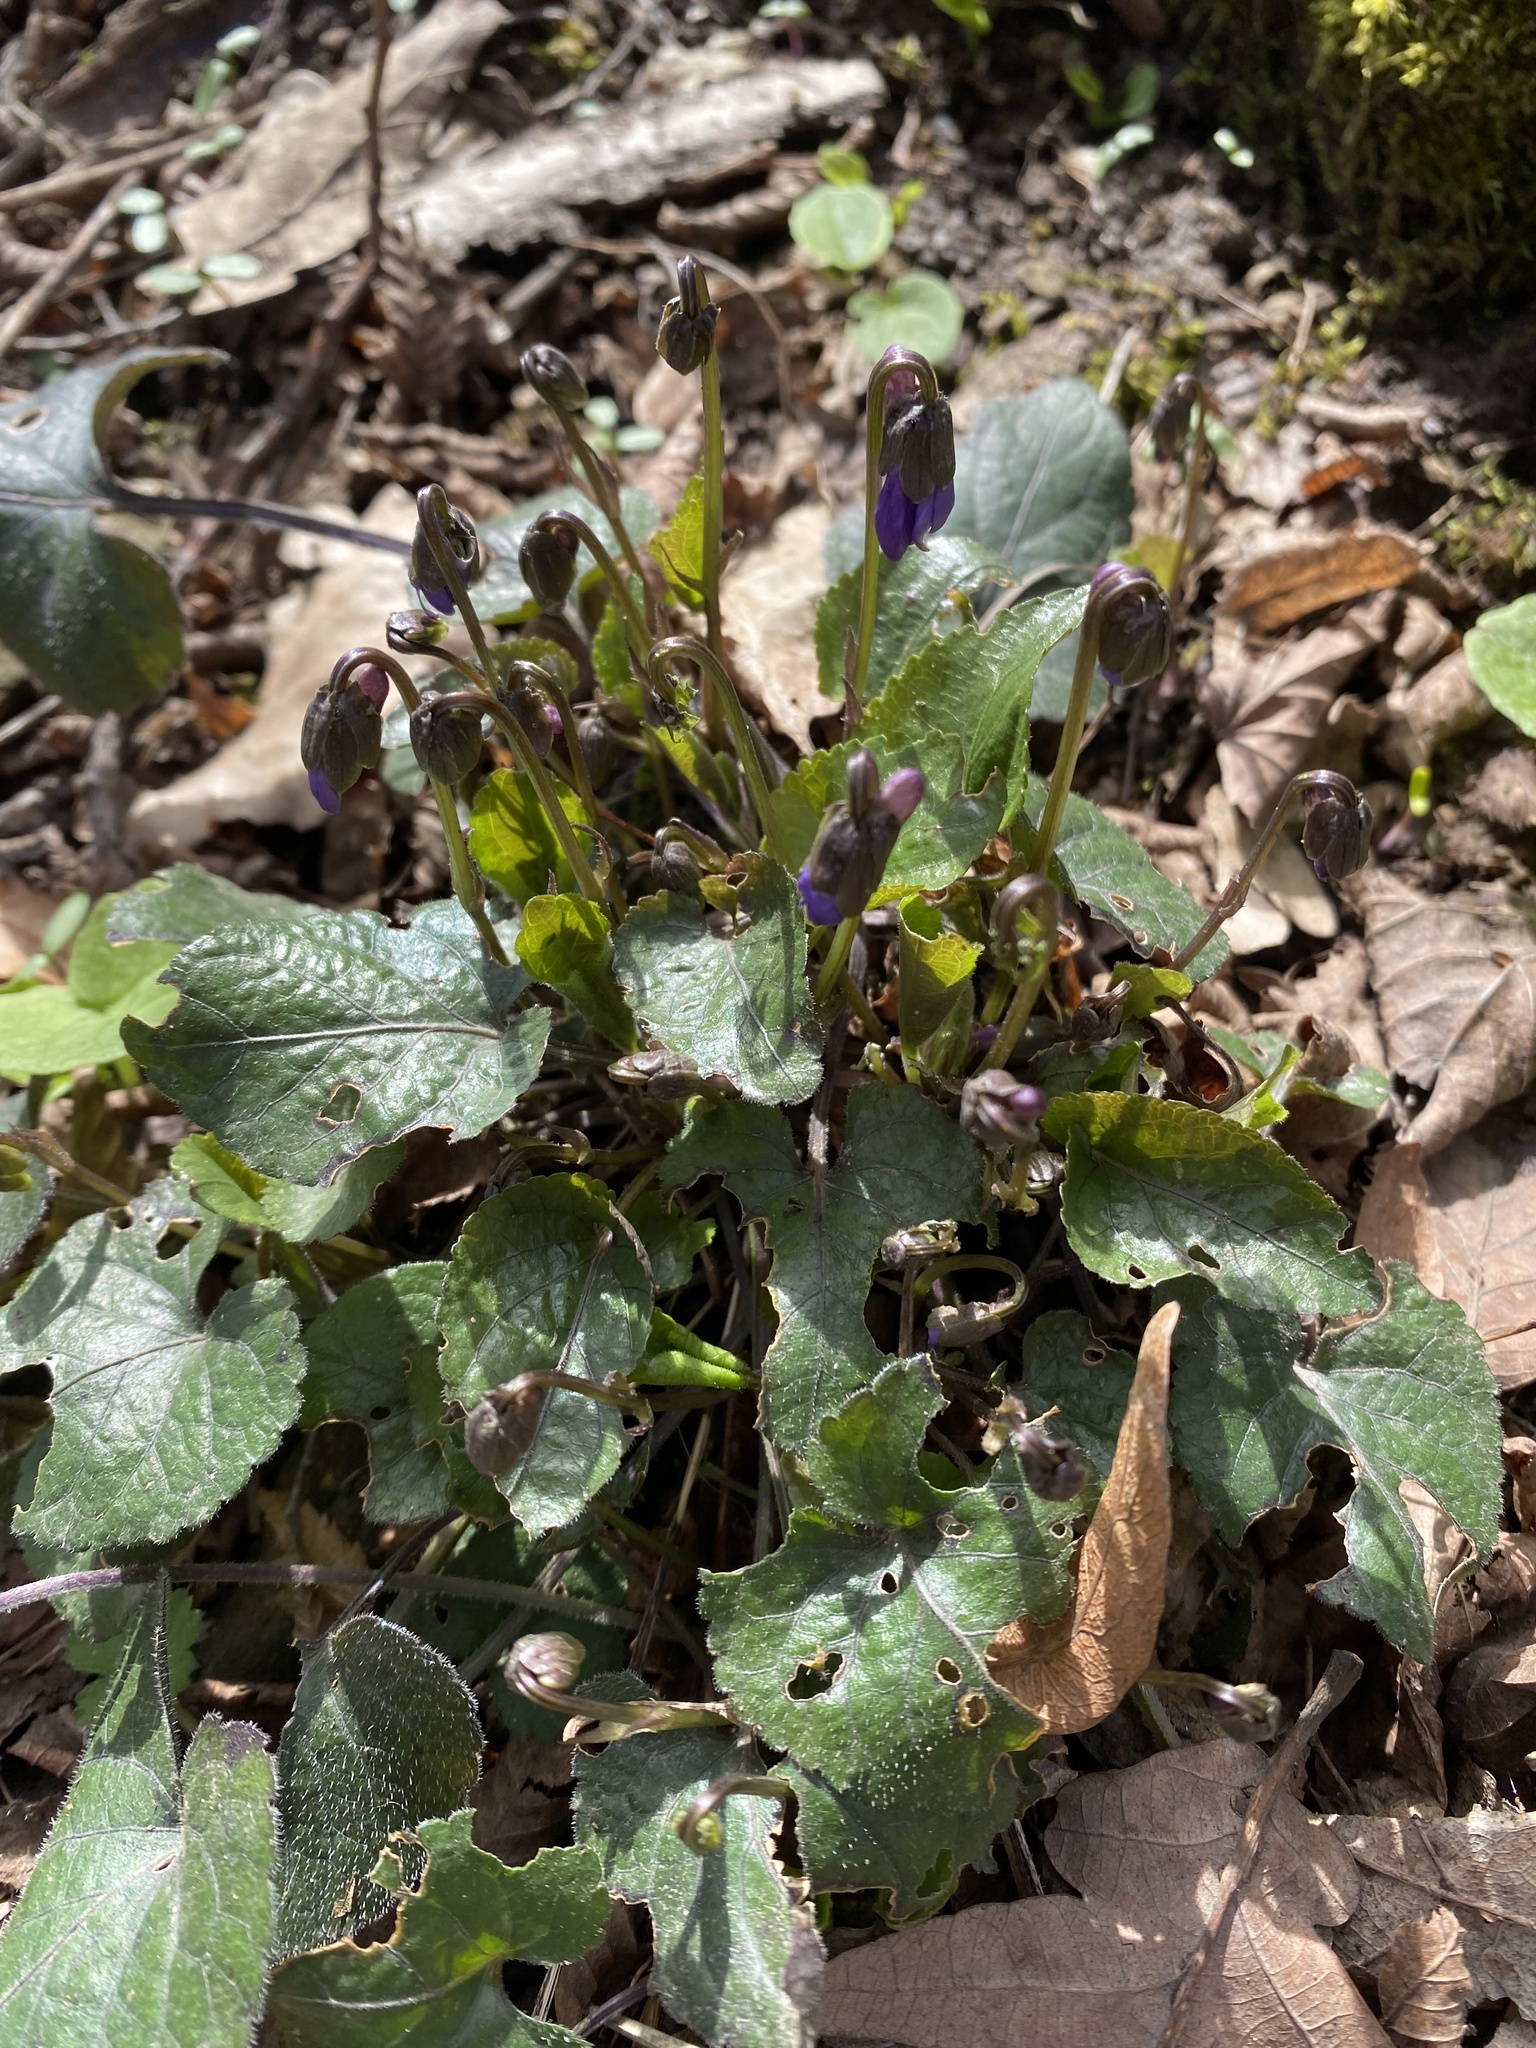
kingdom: Plantae
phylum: Tracheophyta
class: Magnoliopsida
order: Malpighiales
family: Violaceae
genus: Viola
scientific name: Viola alba
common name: White violet
